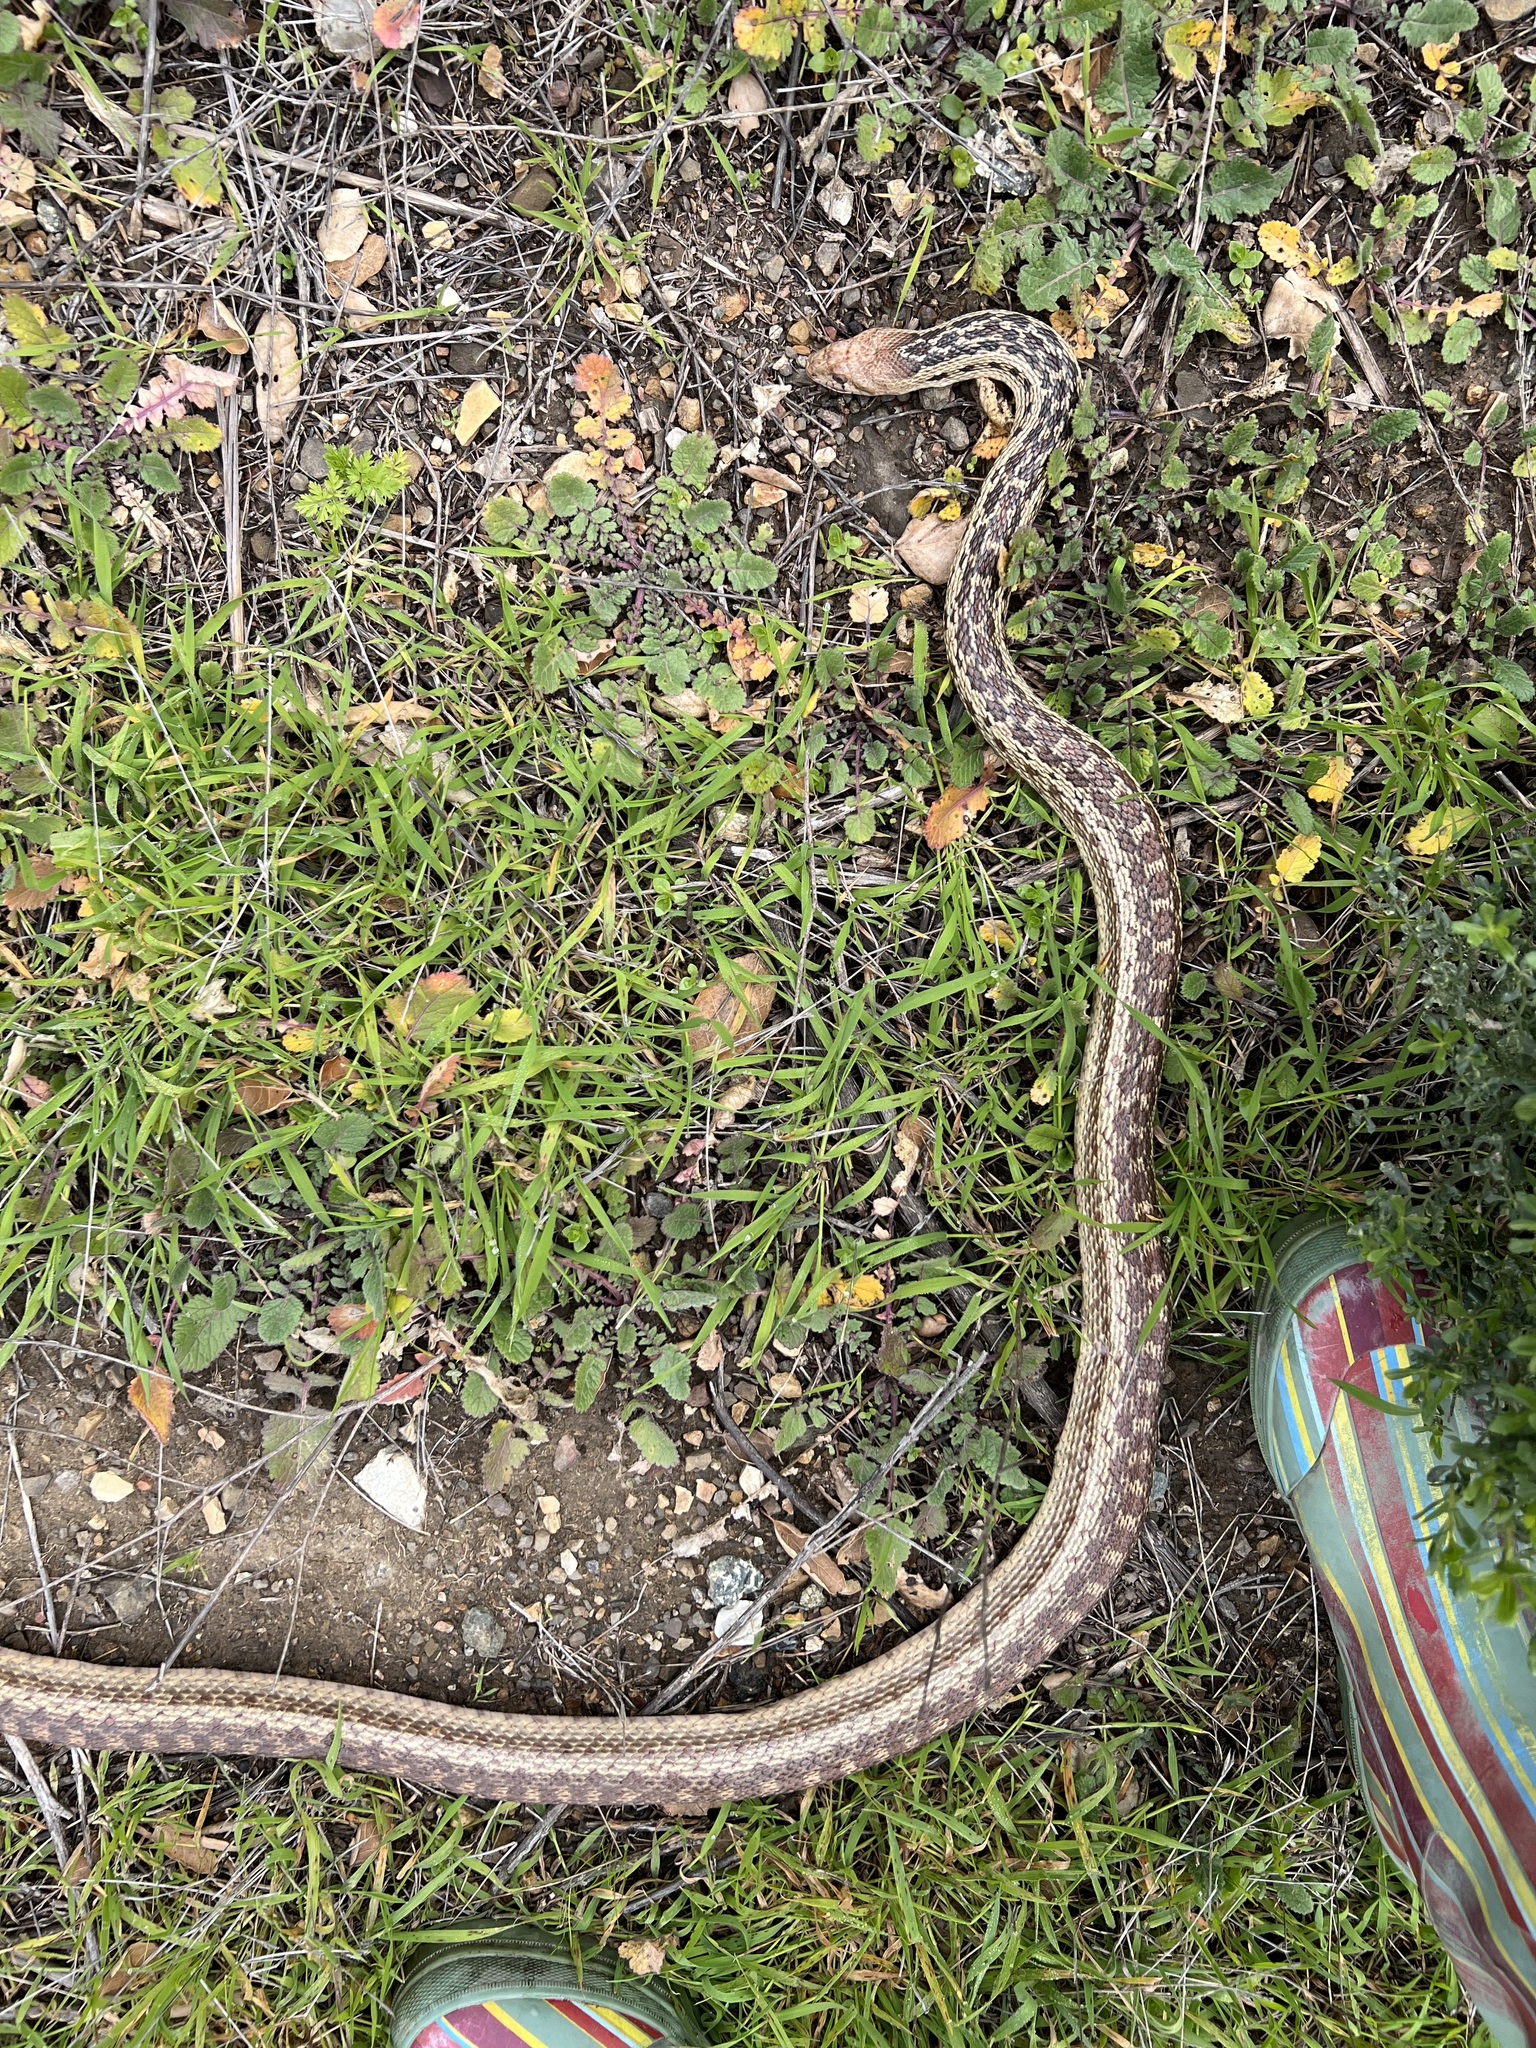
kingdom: Animalia
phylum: Chordata
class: Squamata
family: Colubridae
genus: Pituophis
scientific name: Pituophis catenifer
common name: Gopher snake
